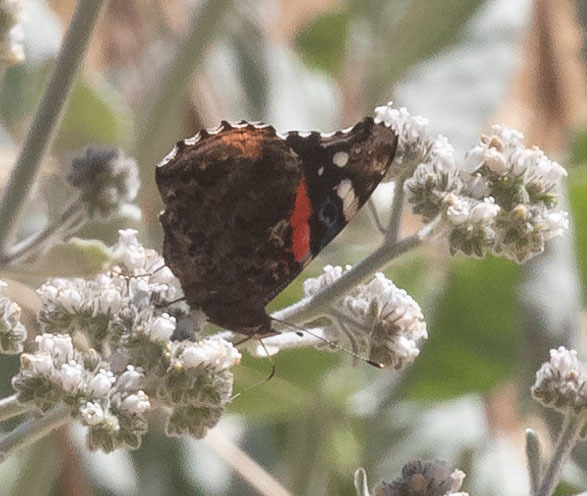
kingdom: Animalia
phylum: Arthropoda
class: Insecta
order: Lepidoptera
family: Nymphalidae
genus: Vanessa
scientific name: Vanessa atalanta
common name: Red admiral
